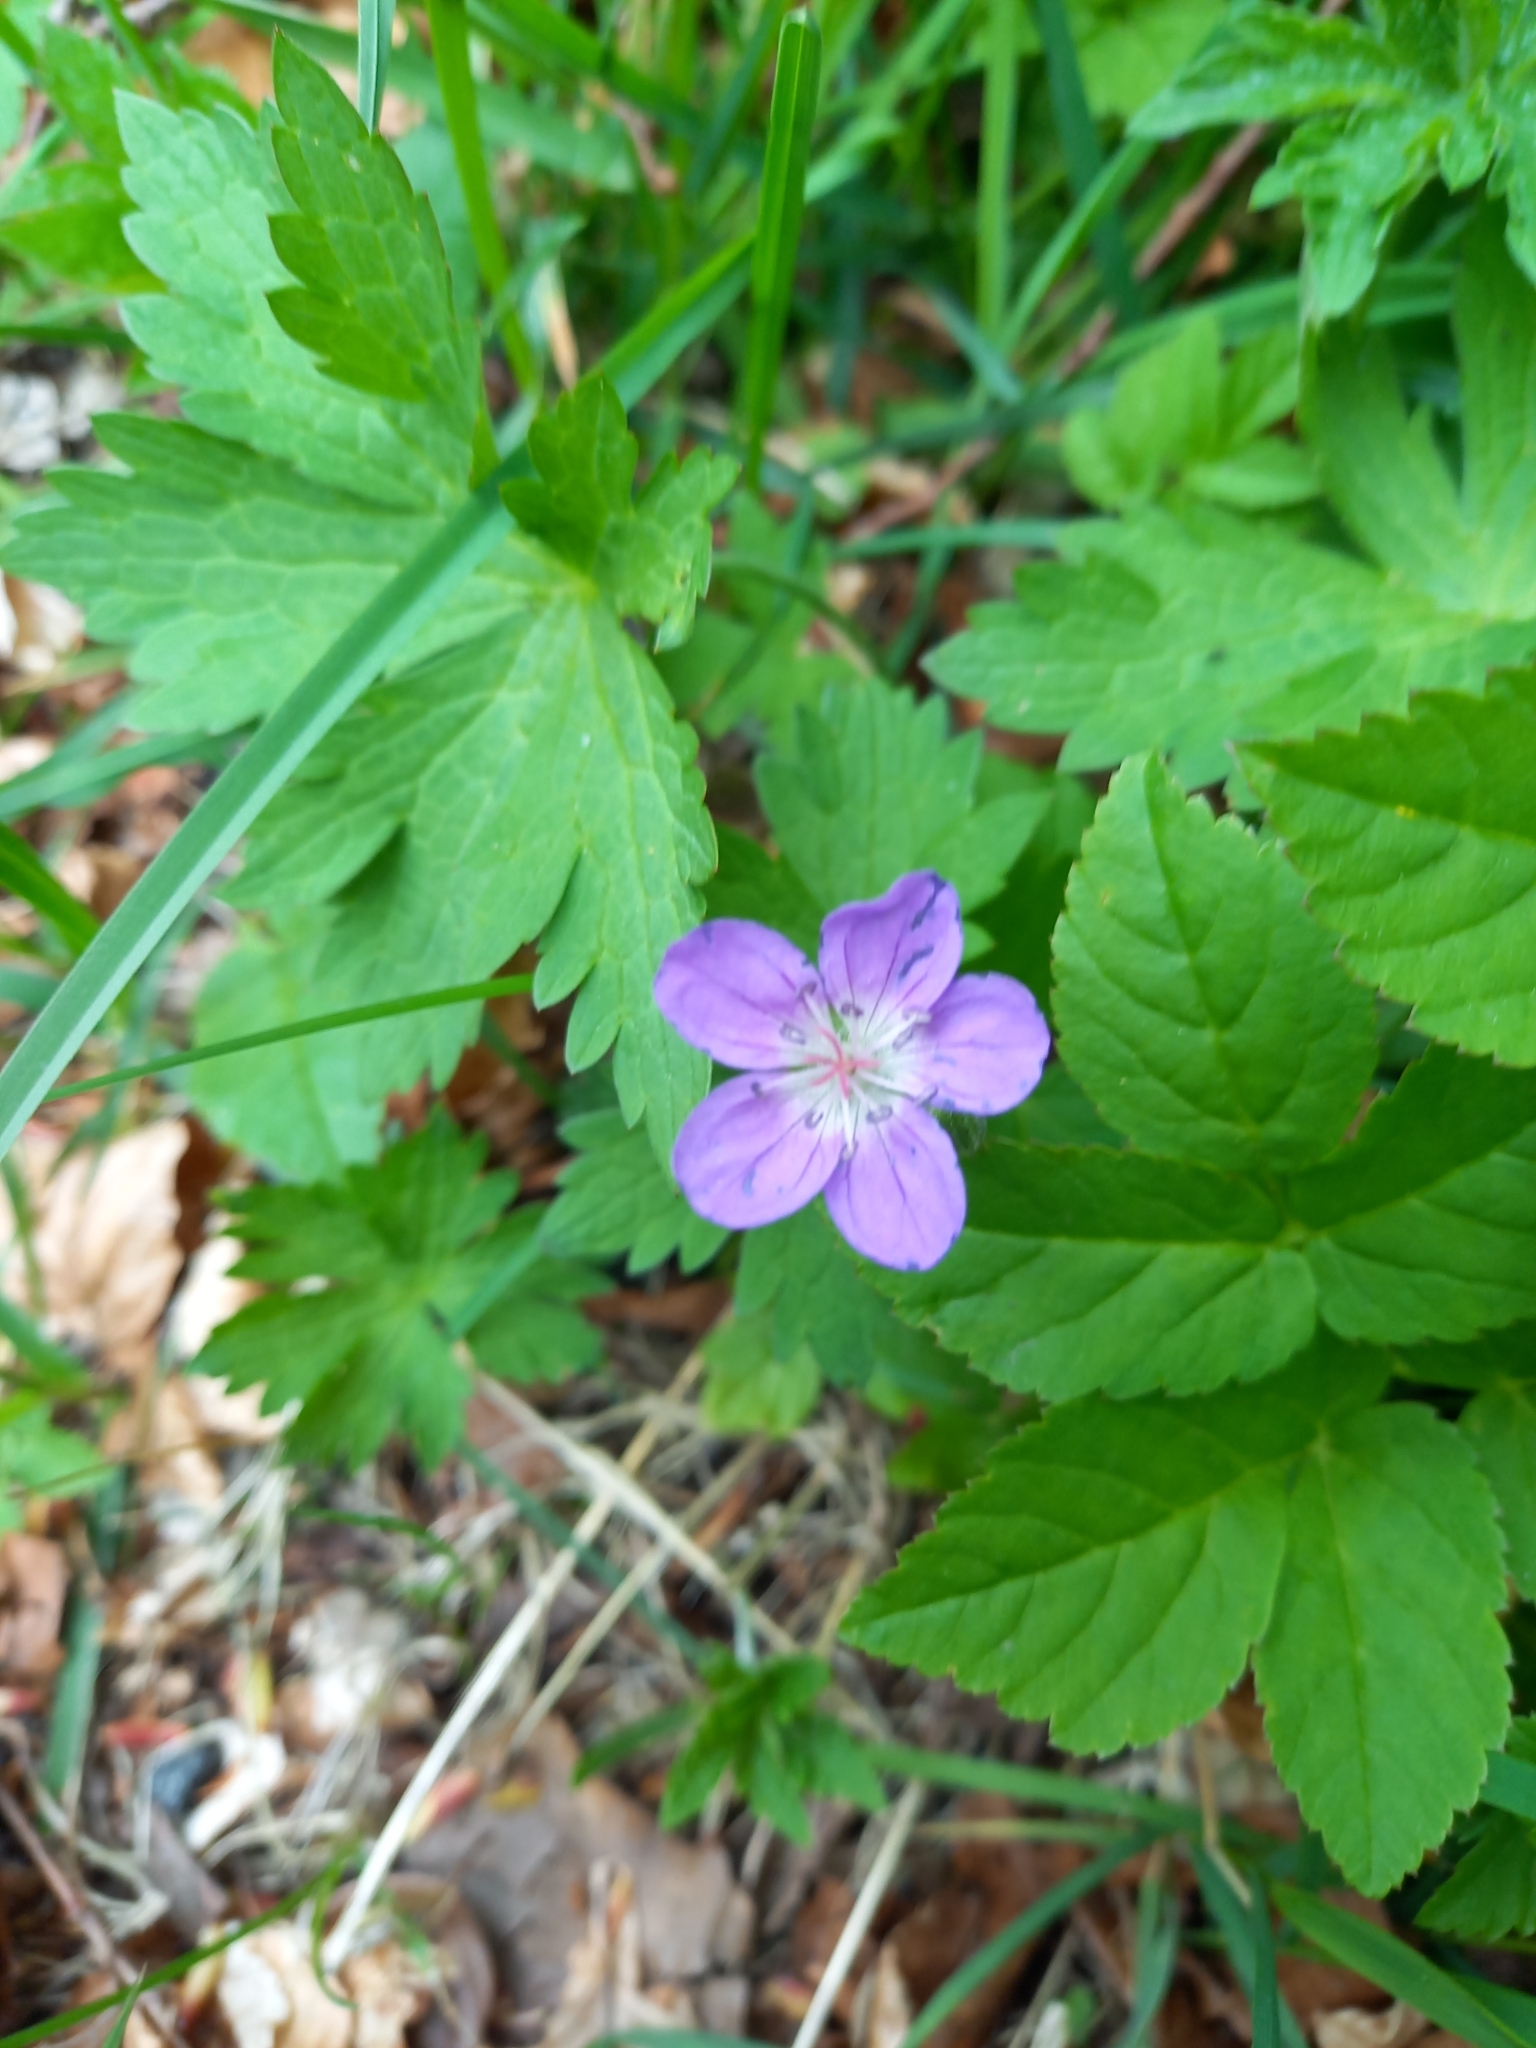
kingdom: Plantae
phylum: Tracheophyta
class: Magnoliopsida
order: Geraniales
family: Geraniaceae
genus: Geranium
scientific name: Geranium sylvaticum
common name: Wood crane's-bill
